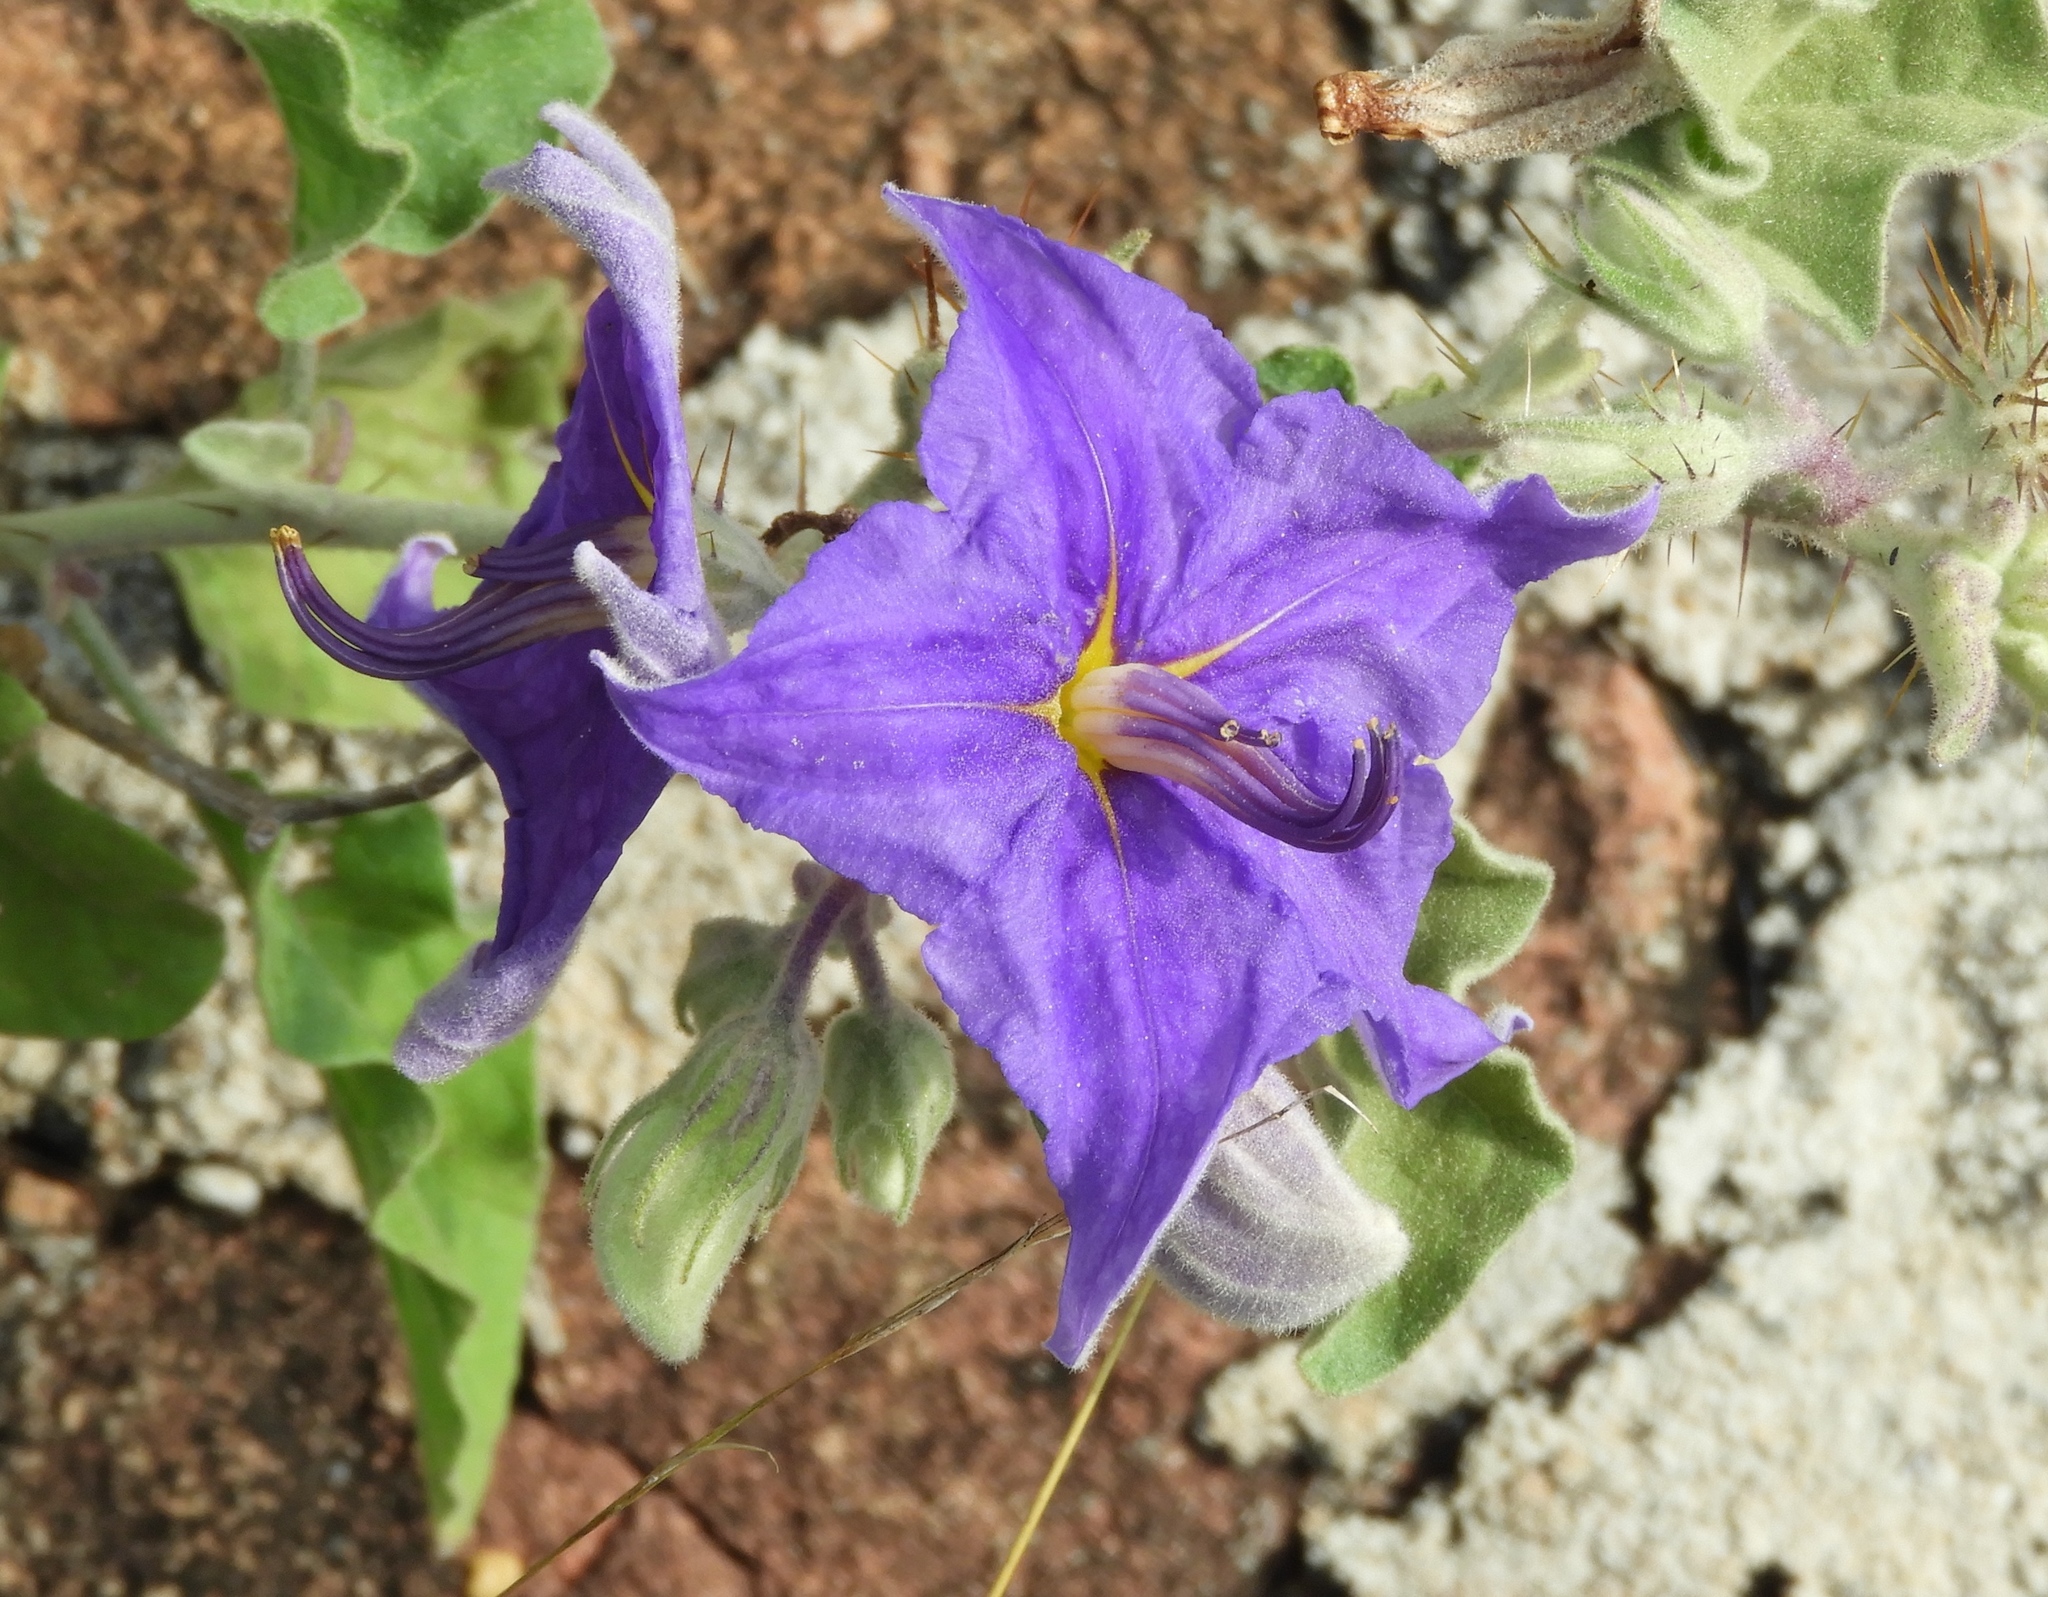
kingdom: Plantae
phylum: Tracheophyta
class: Magnoliopsida
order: Solanales
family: Solanaceae
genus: Solanum
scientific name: Solanum houstonii
